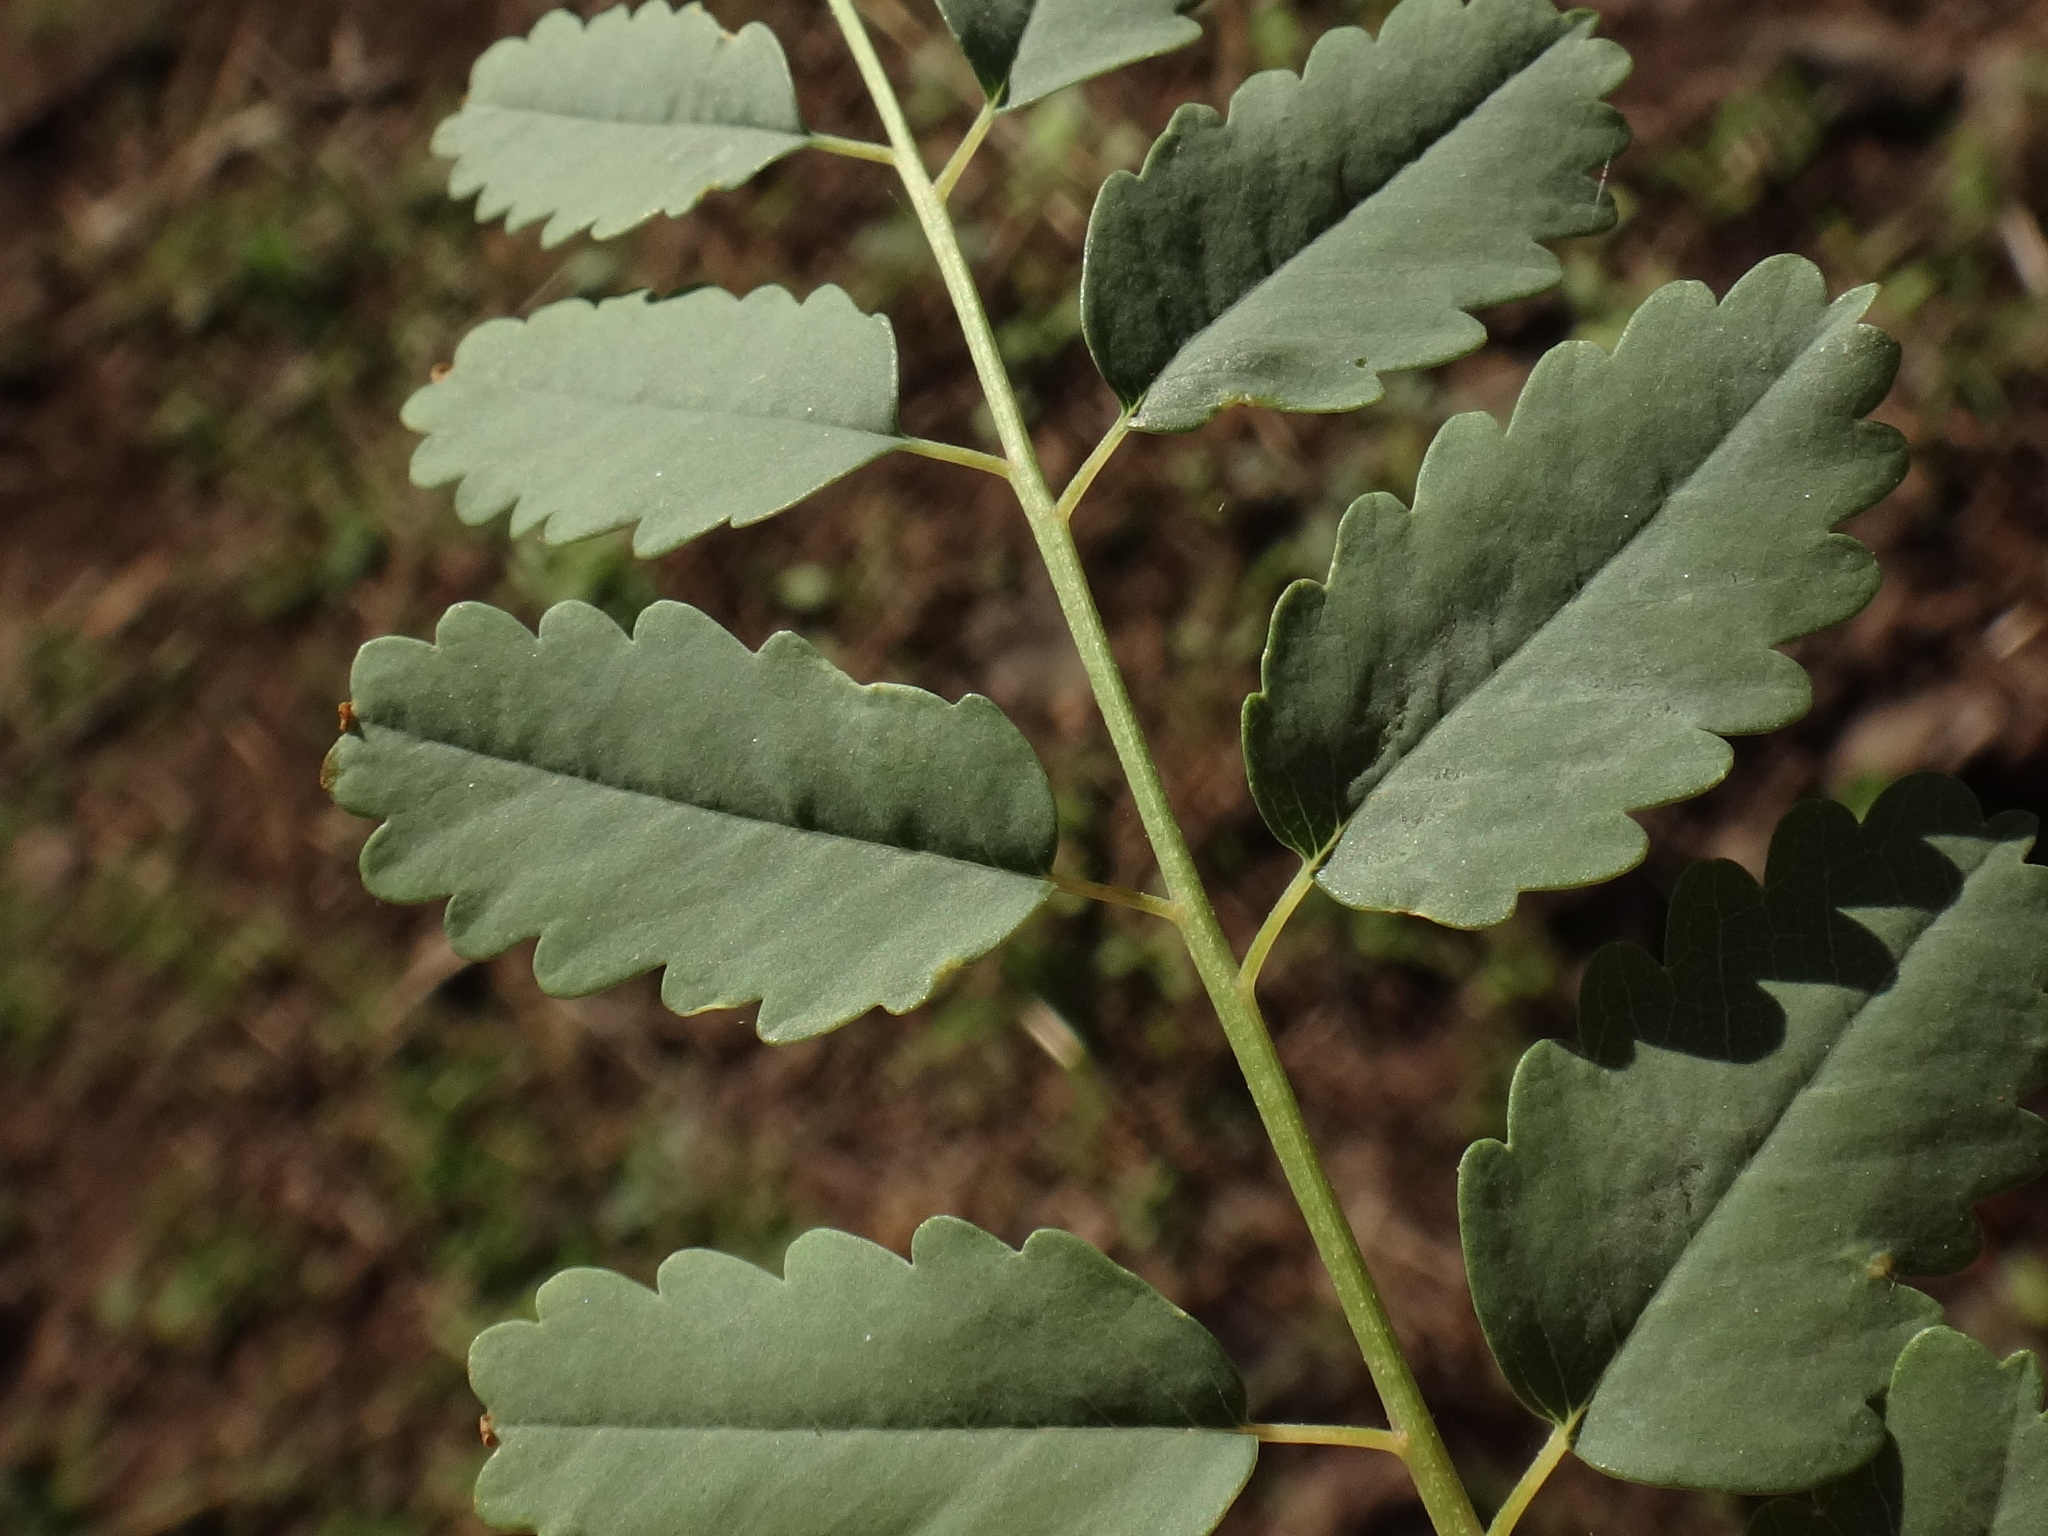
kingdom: Plantae
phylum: Tracheophyta
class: Magnoliopsida
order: Rosales
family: Rosaceae
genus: Marcetella
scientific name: Marcetella moquiniana
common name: Burnet tree
